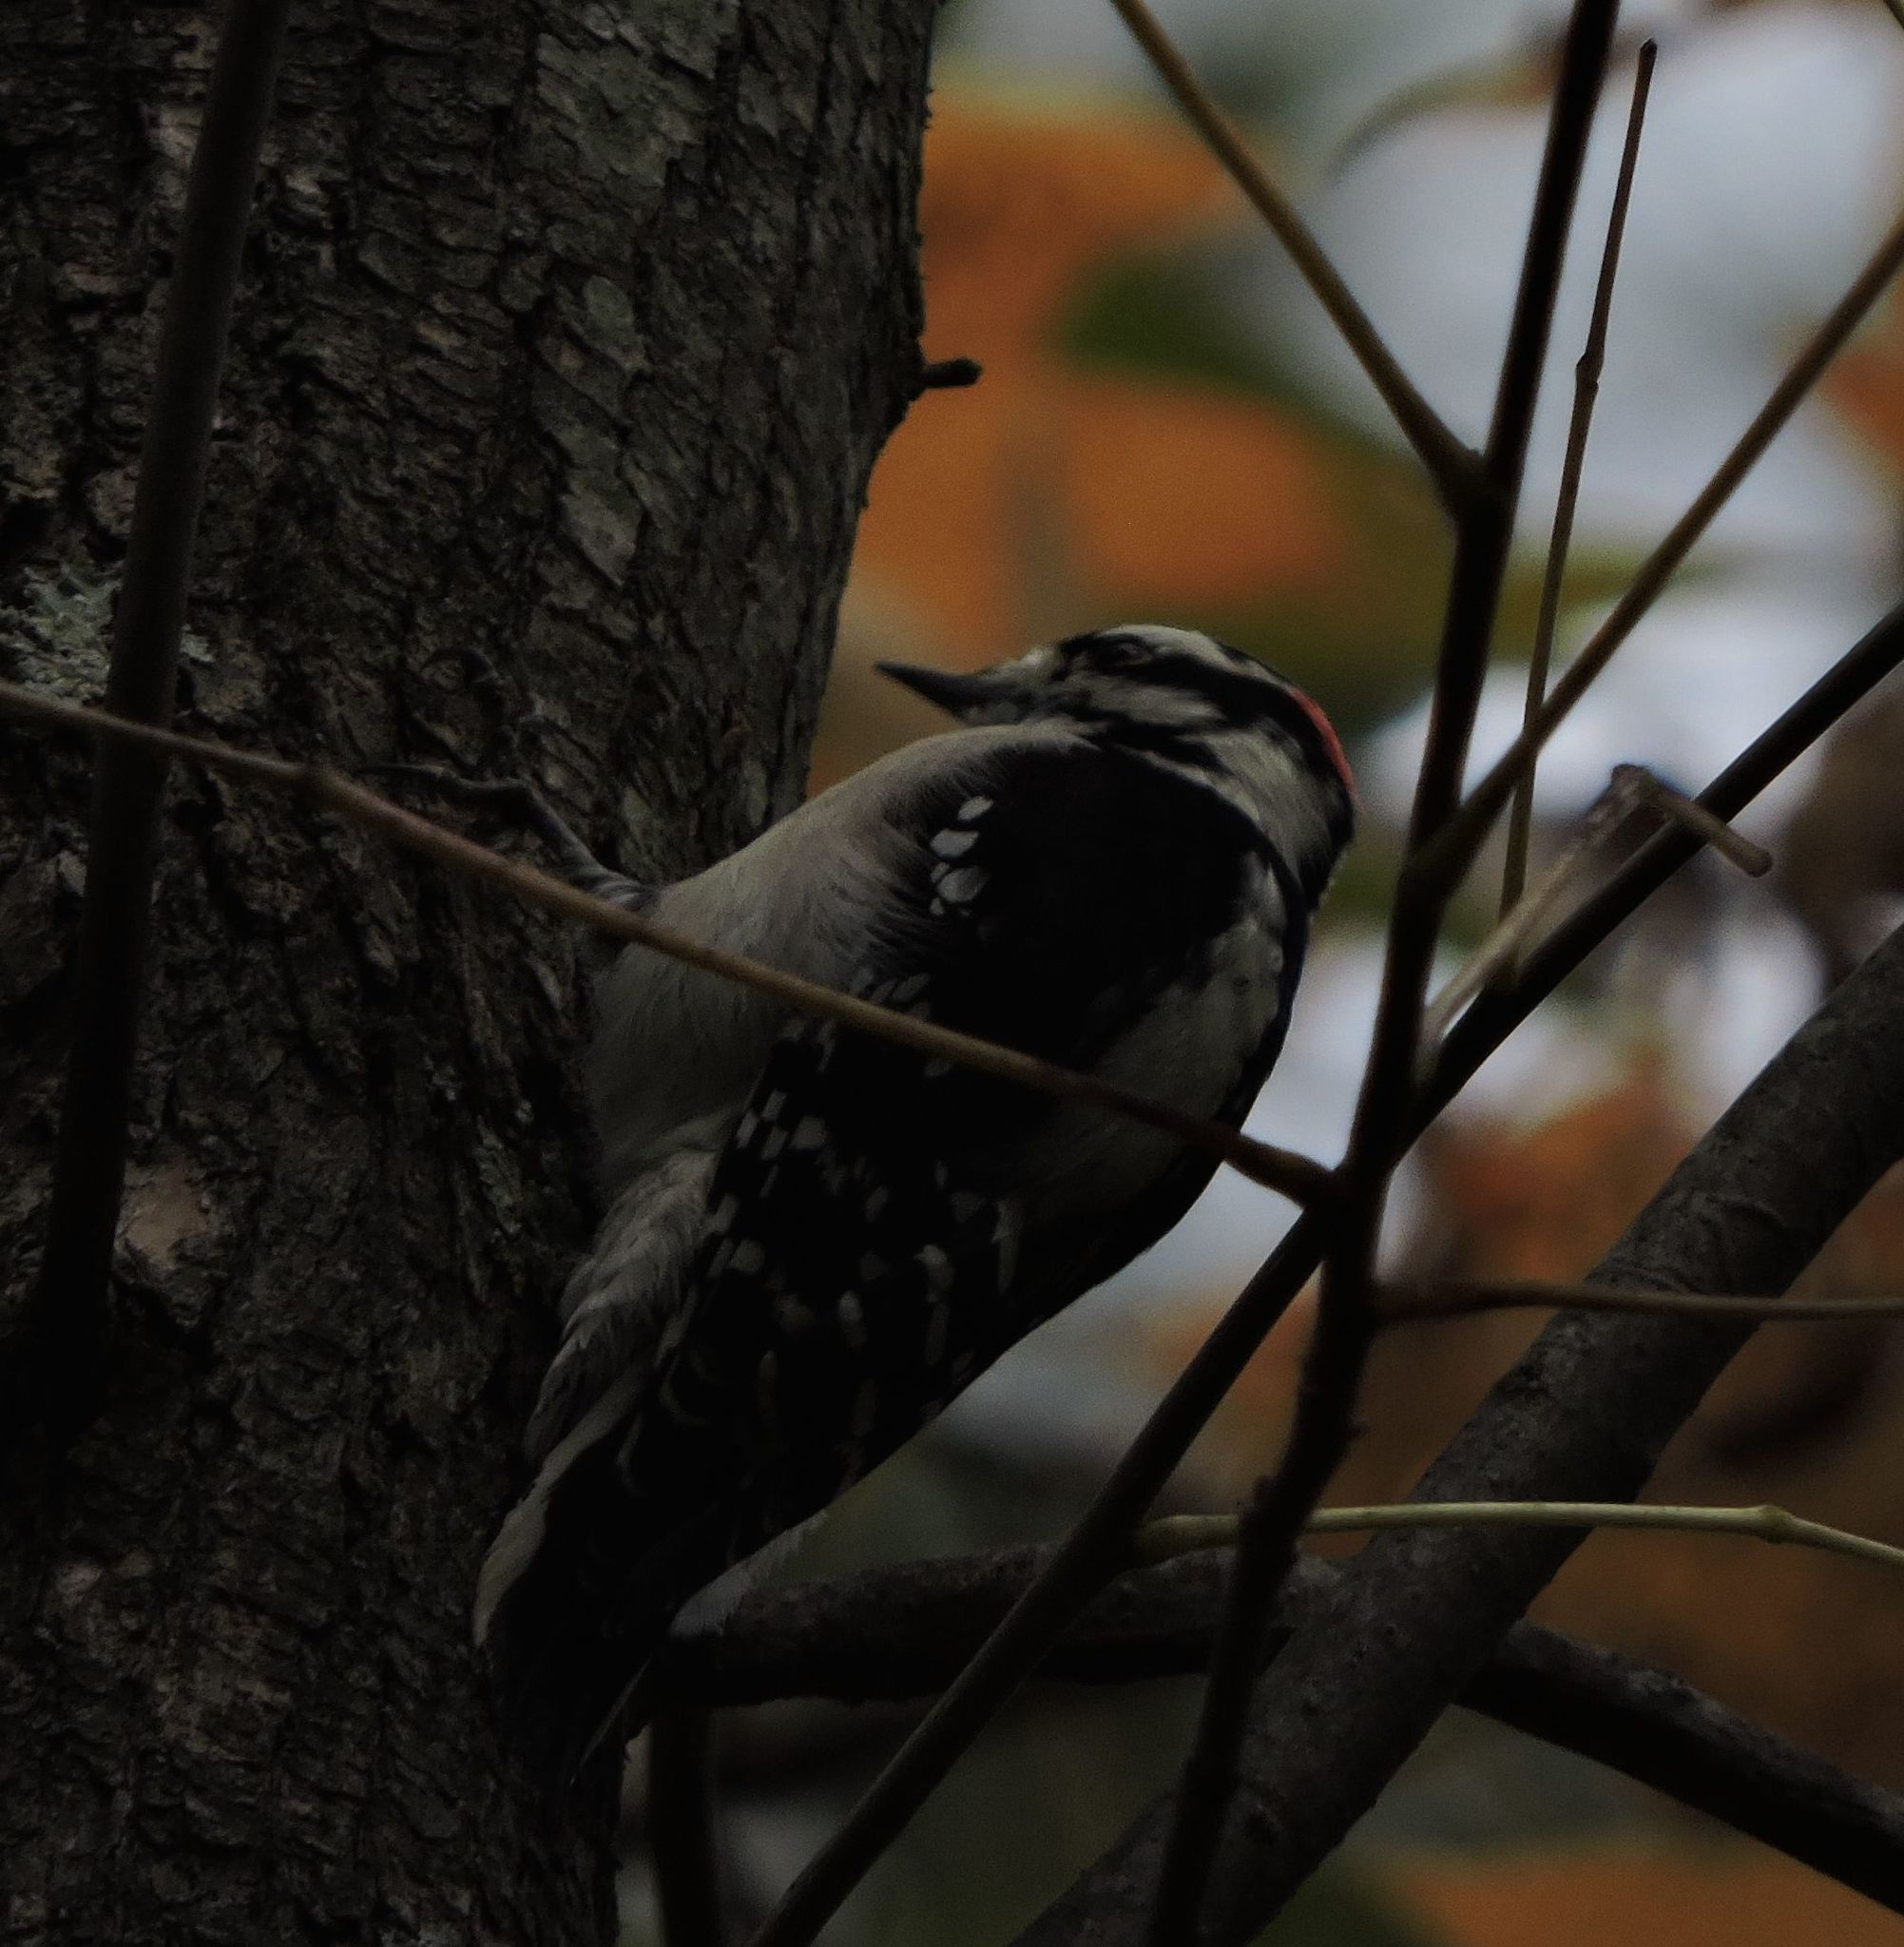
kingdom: Animalia
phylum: Chordata
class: Aves
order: Piciformes
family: Picidae
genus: Leuconotopicus
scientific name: Leuconotopicus villosus
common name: Hairy woodpecker
